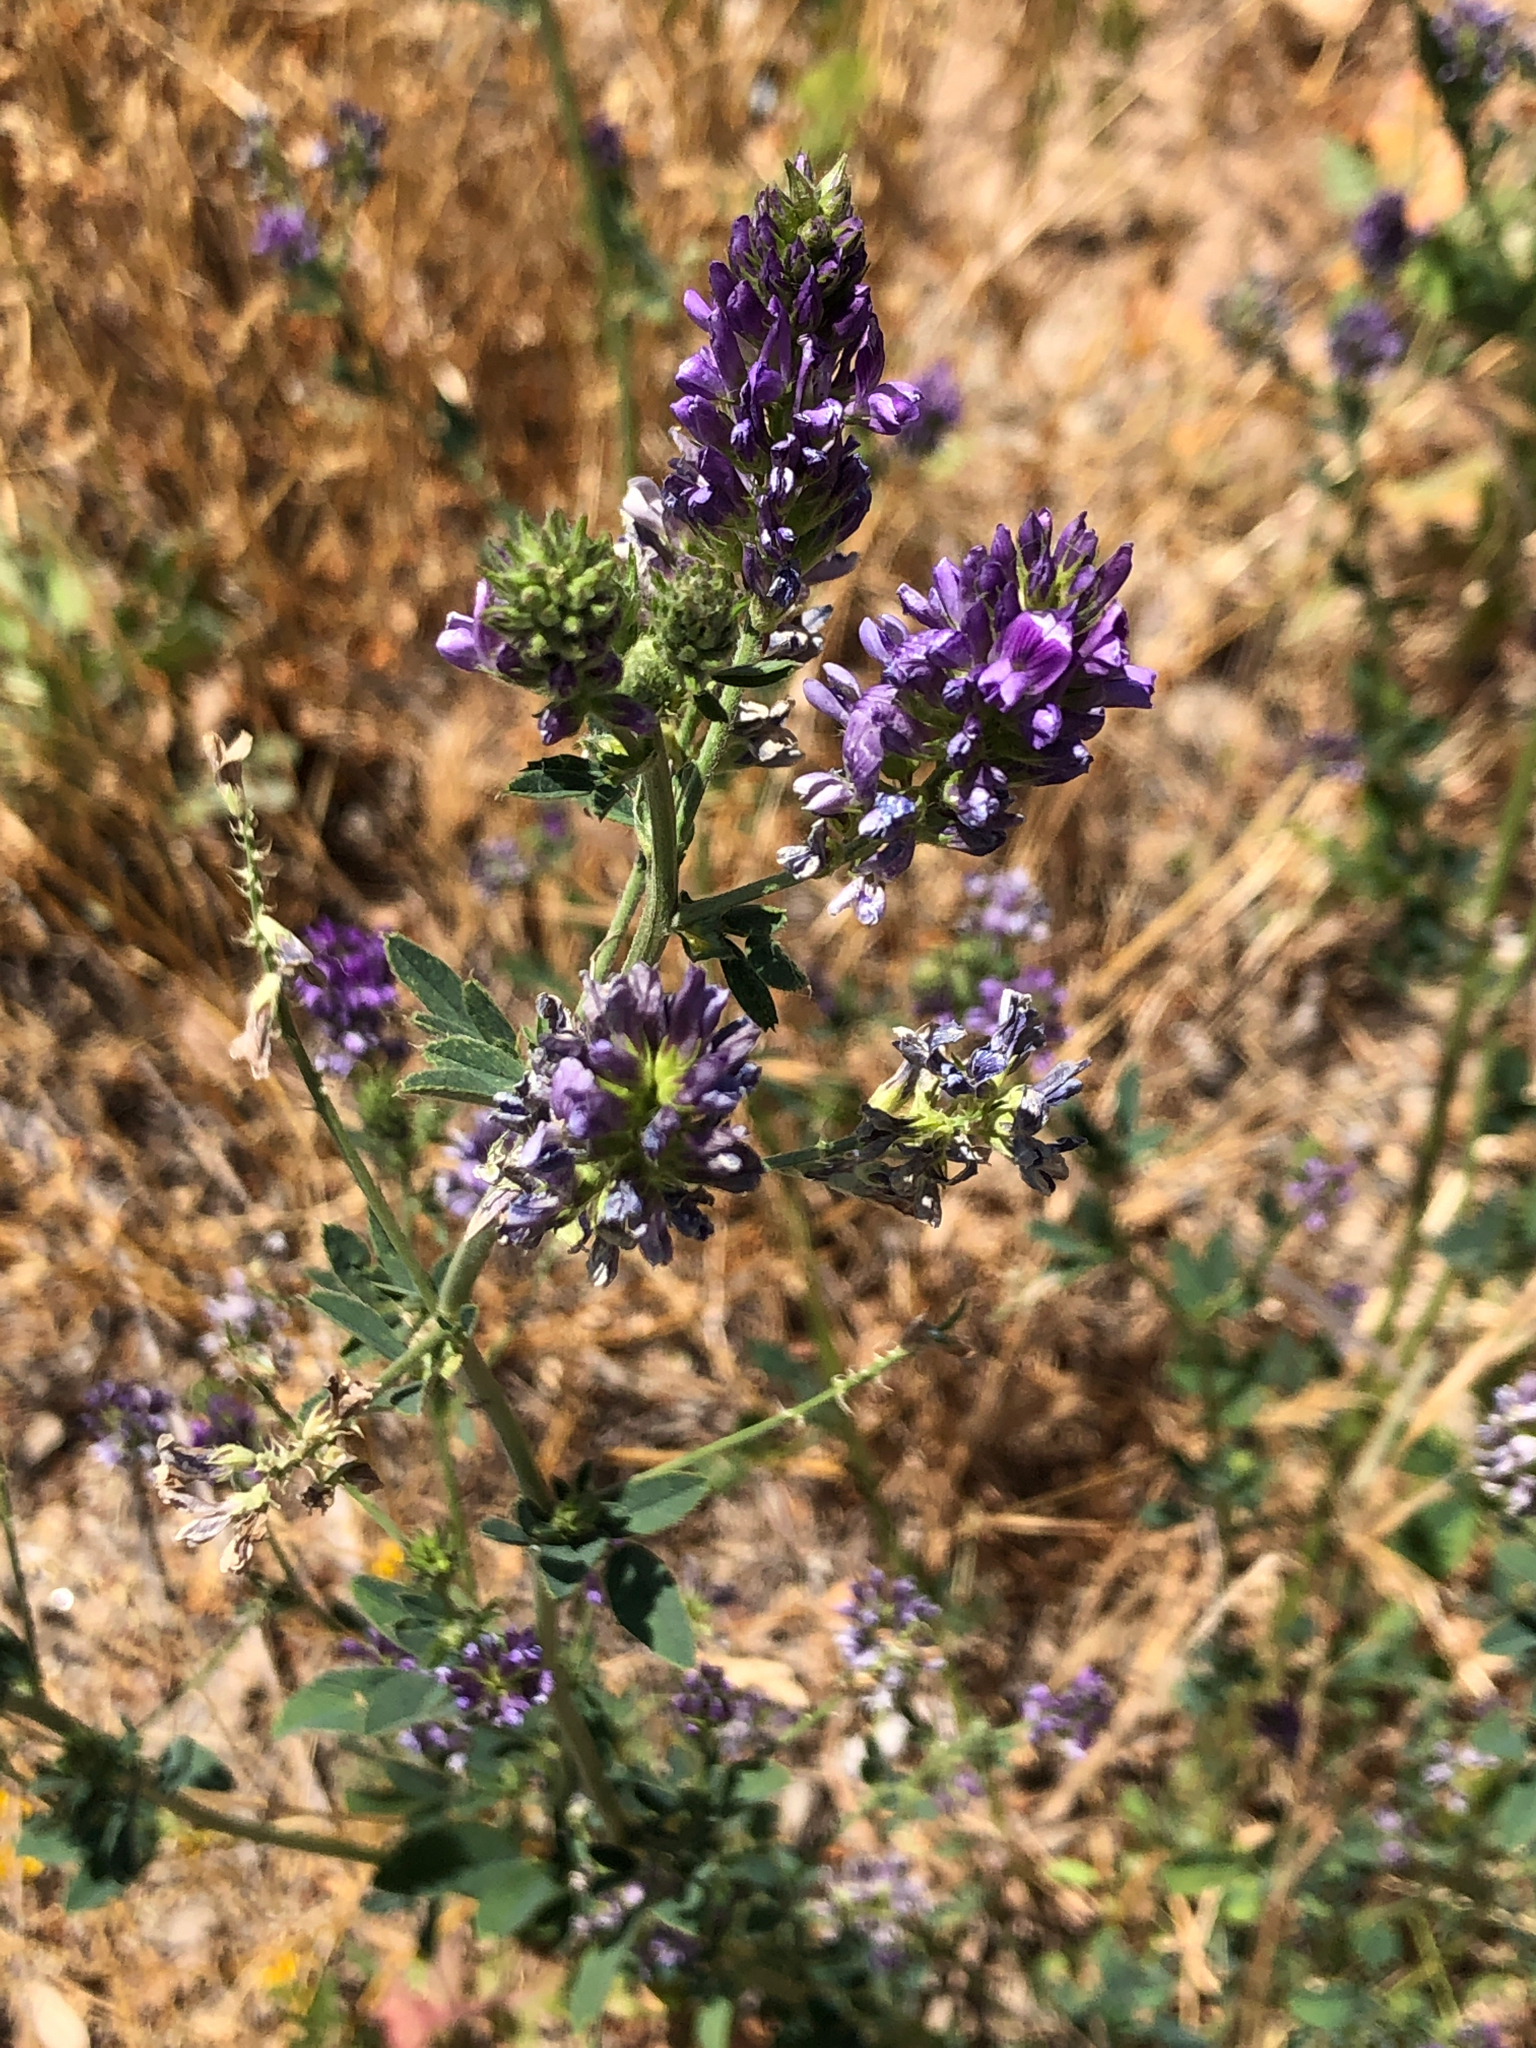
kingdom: Plantae
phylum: Tracheophyta
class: Magnoliopsida
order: Fabales
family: Fabaceae
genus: Medicago
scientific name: Medicago sativa
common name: Alfalfa
